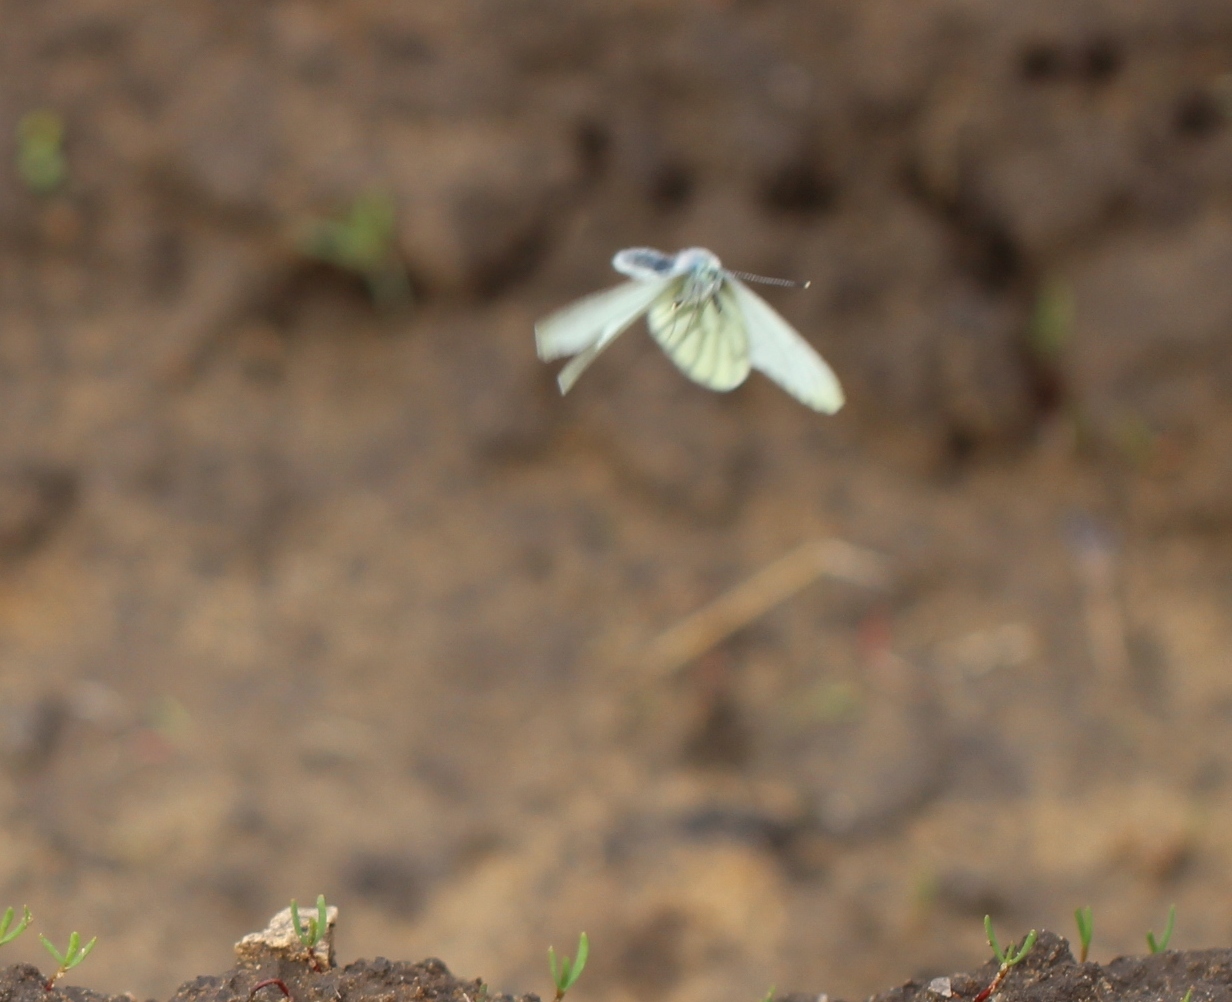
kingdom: Animalia
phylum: Arthropoda
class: Insecta
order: Lepidoptera
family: Pieridae
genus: Pieris
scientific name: Pieris napi
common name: Green-veined white
